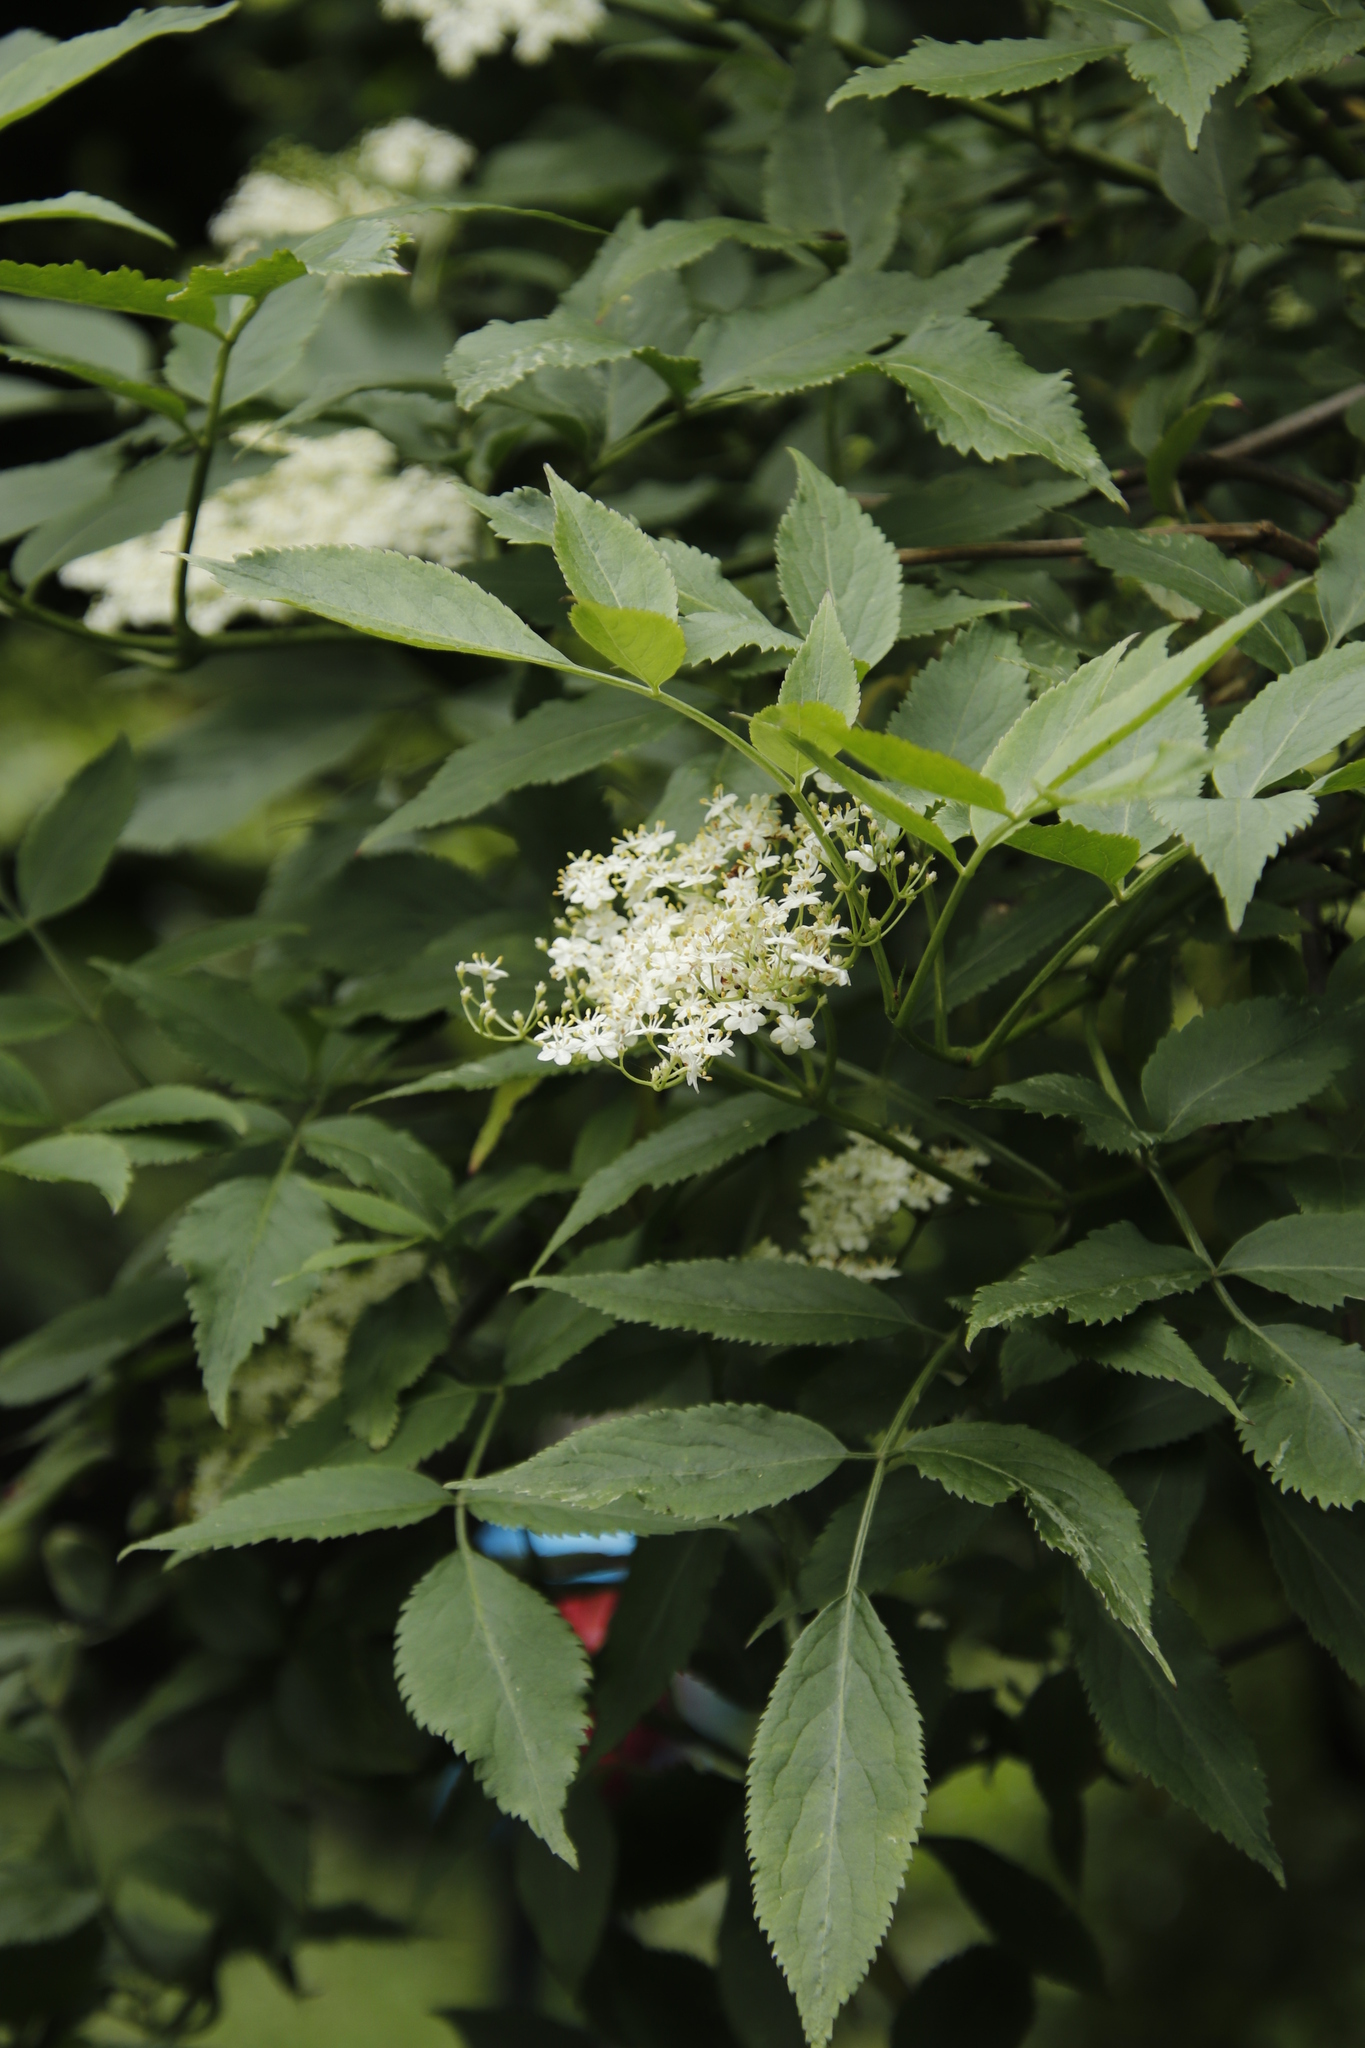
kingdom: Plantae
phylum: Tracheophyta
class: Magnoliopsida
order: Dipsacales
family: Viburnaceae
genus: Sambucus
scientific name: Sambucus nigra
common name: Elder
